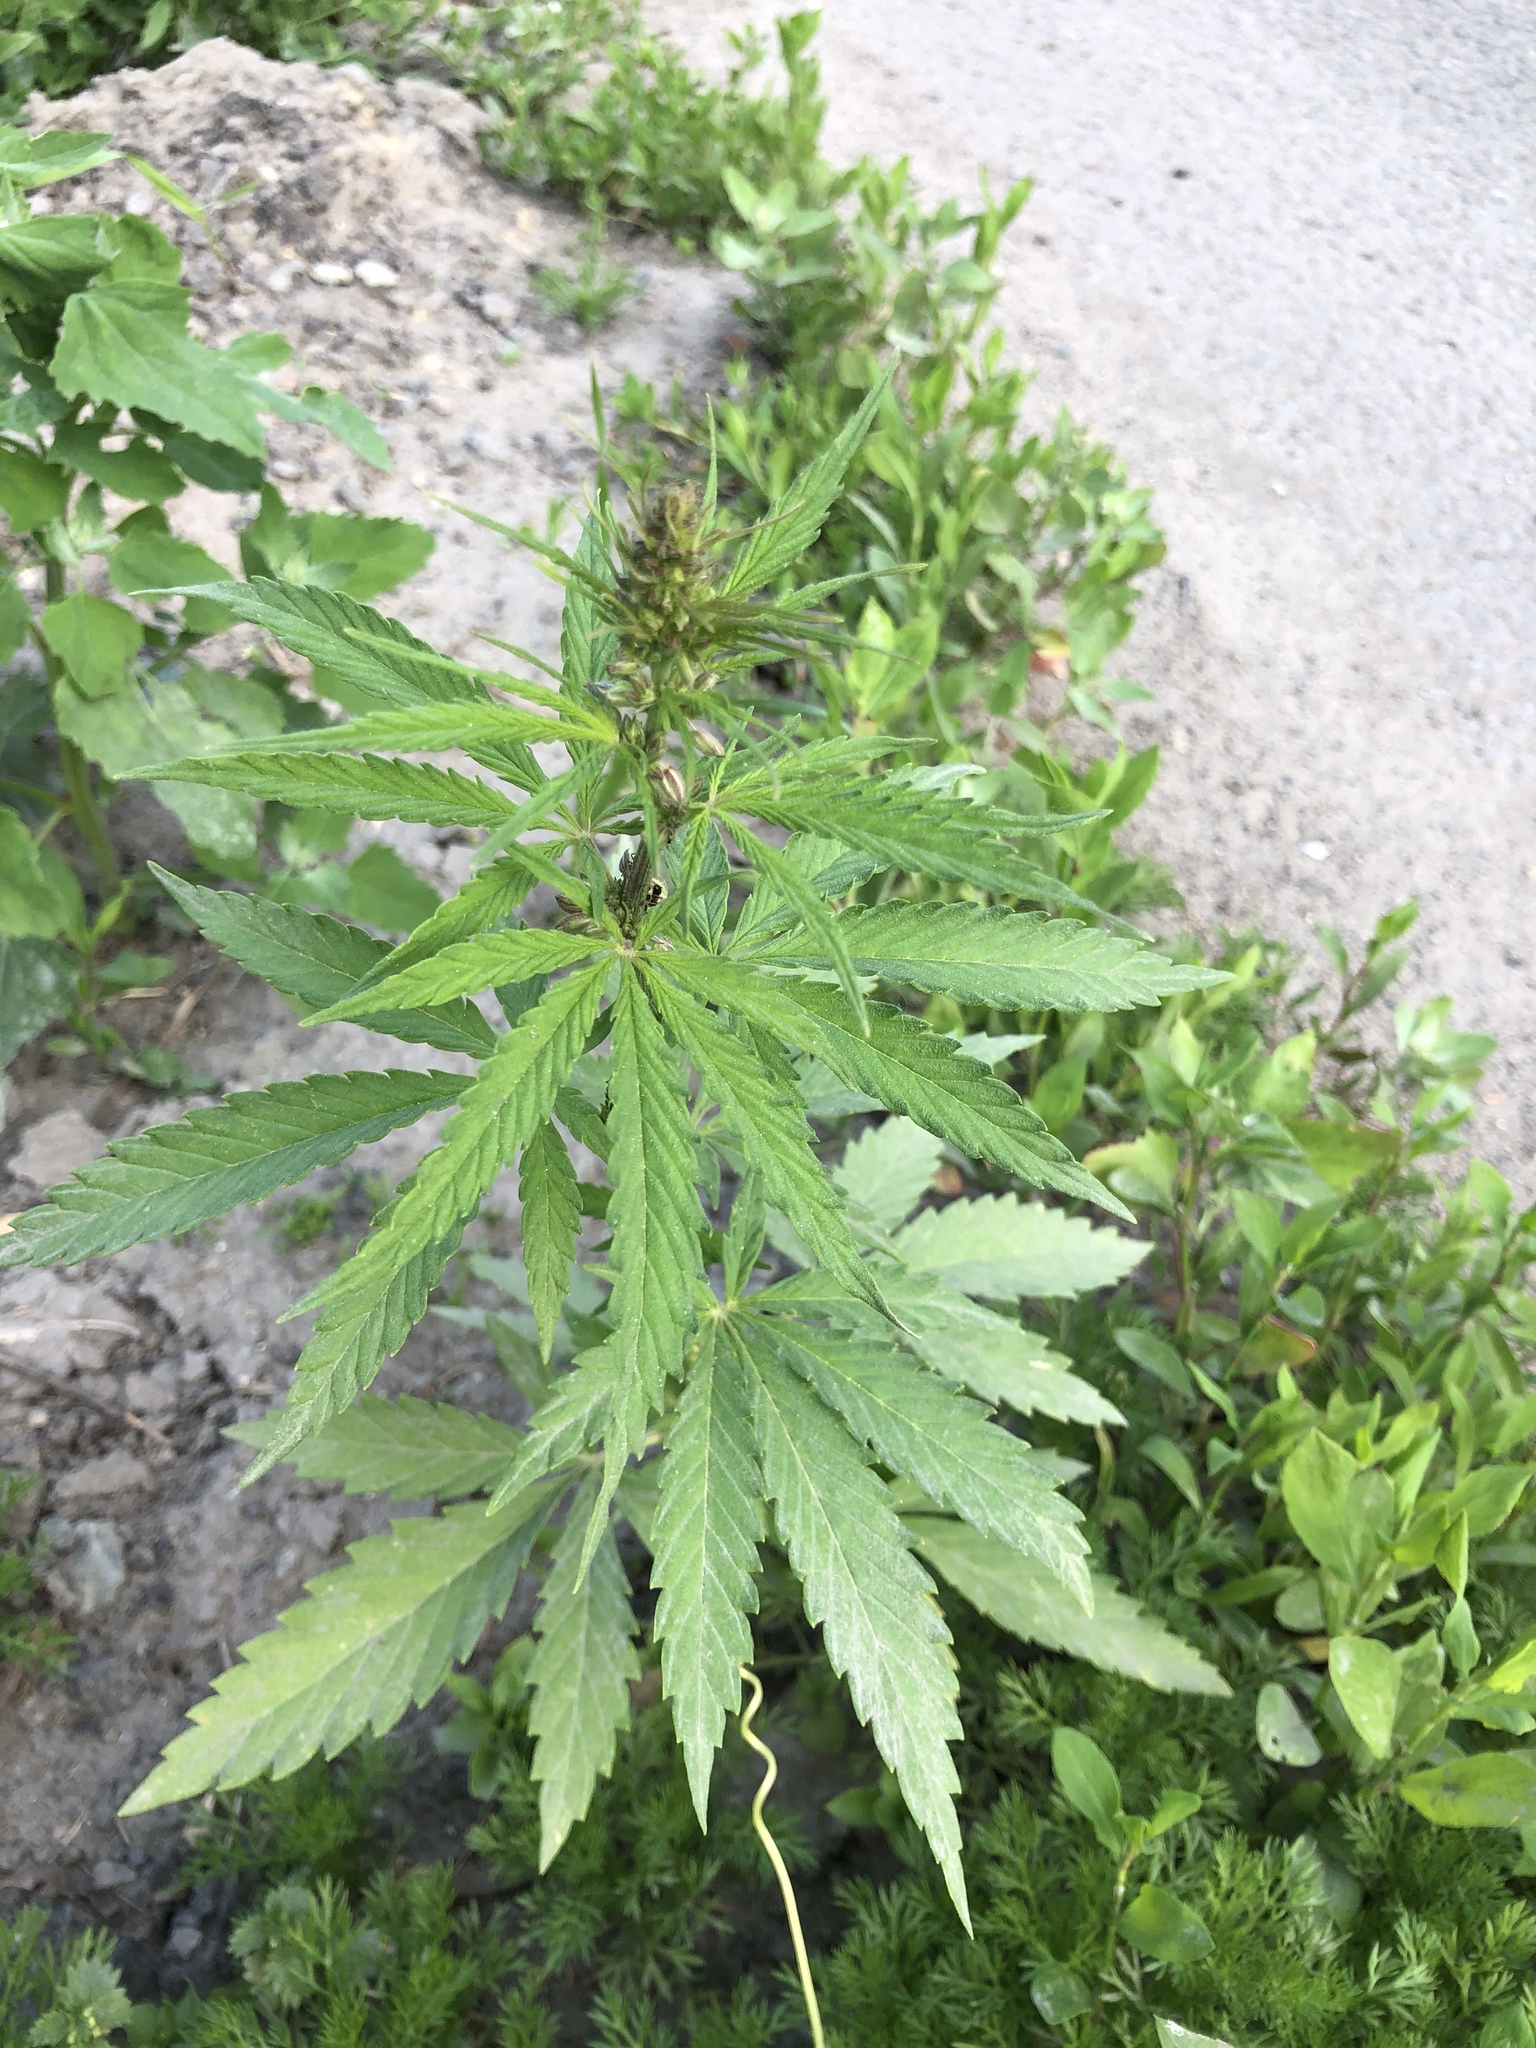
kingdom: Plantae
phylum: Tracheophyta
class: Magnoliopsida
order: Rosales
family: Cannabaceae
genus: Cannabis
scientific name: Cannabis sativa
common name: Hemp
